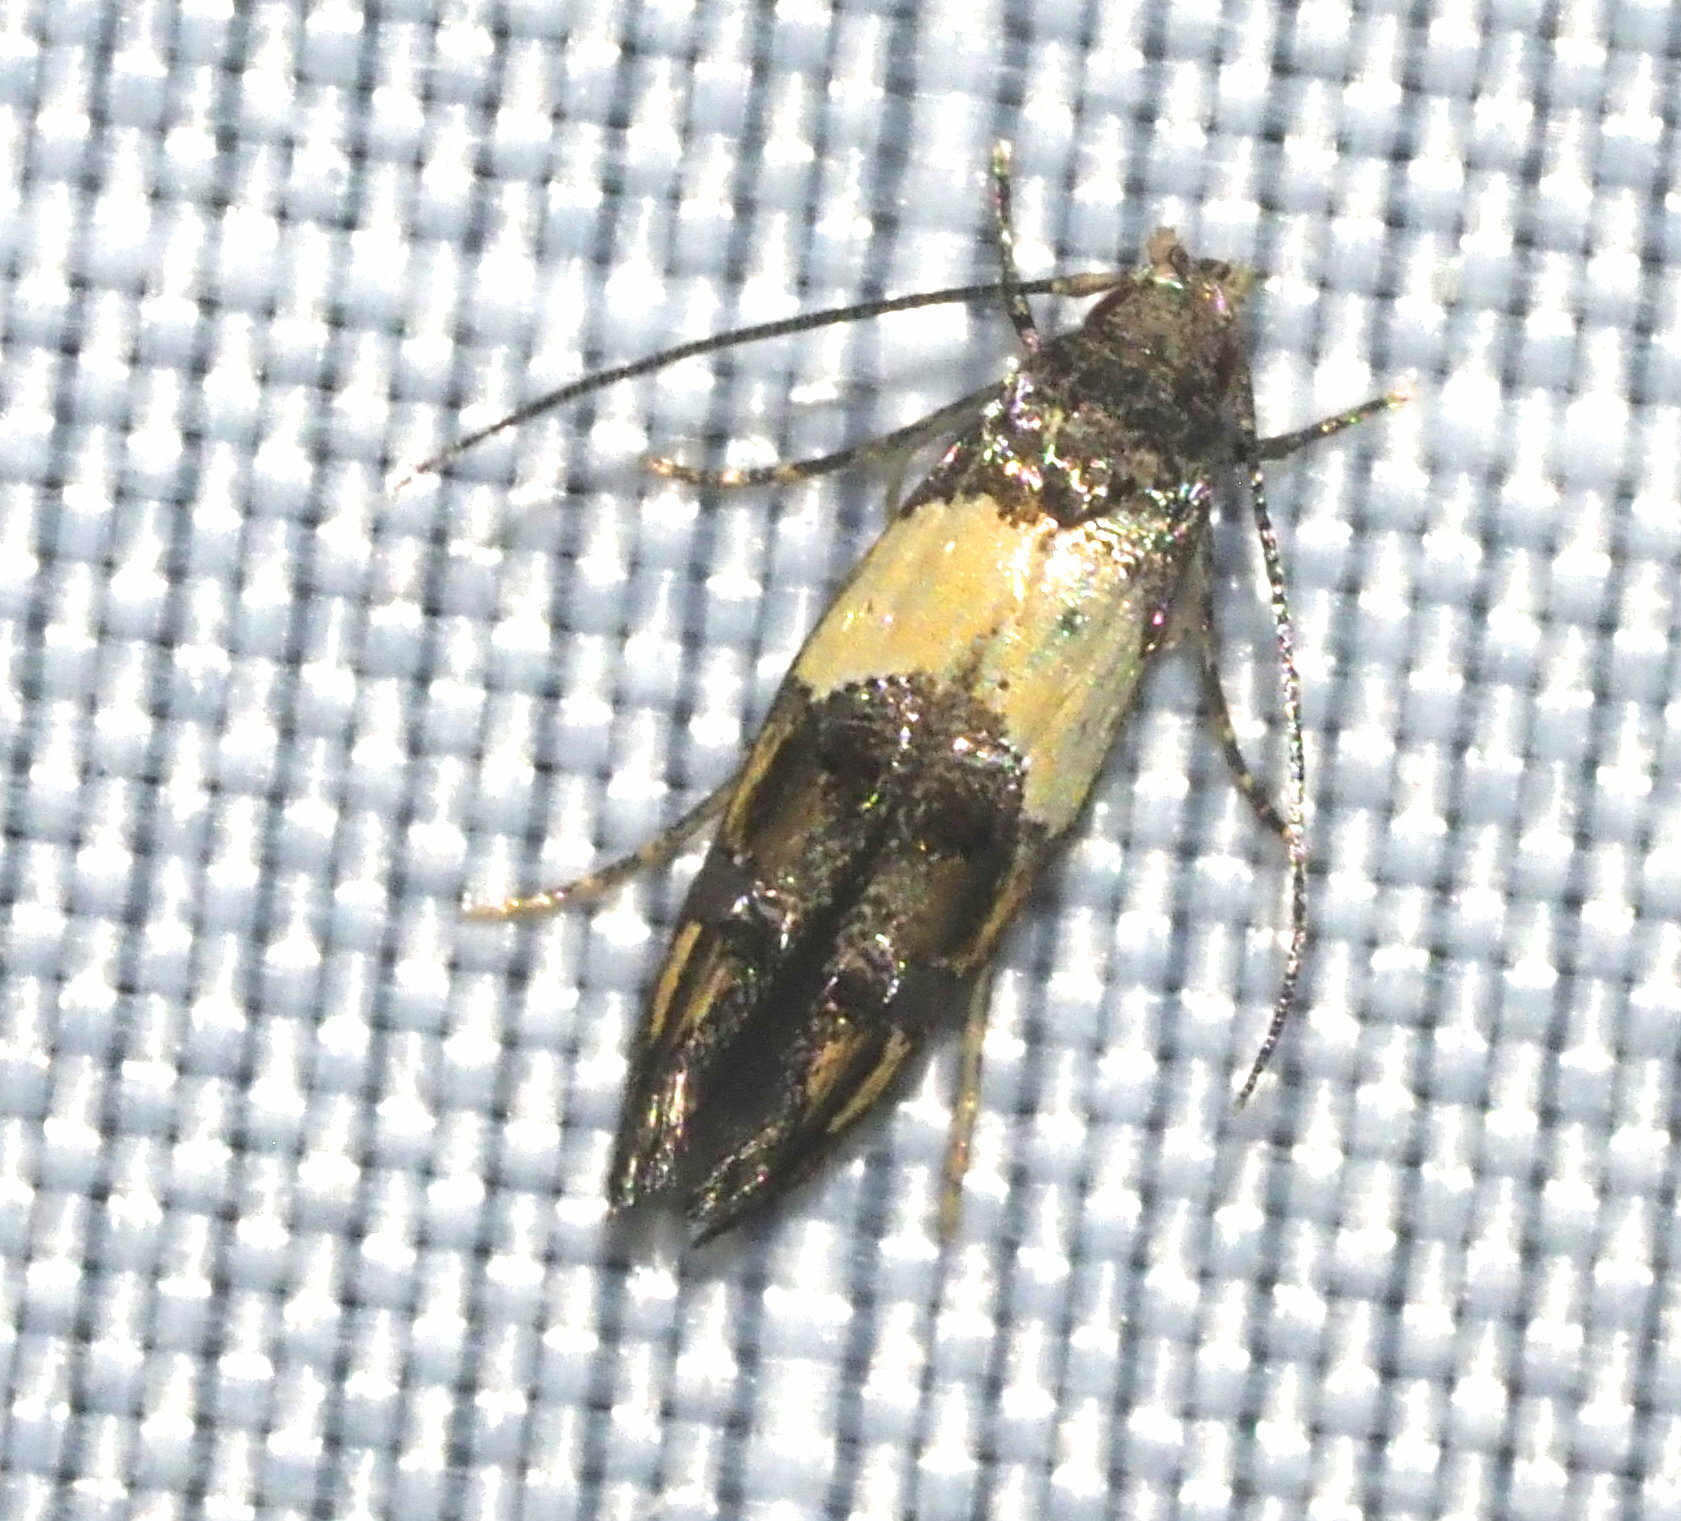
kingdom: Animalia
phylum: Arthropoda
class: Insecta
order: Lepidoptera
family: Momphidae
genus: Mompha
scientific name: Mompha trithalama
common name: Moth
